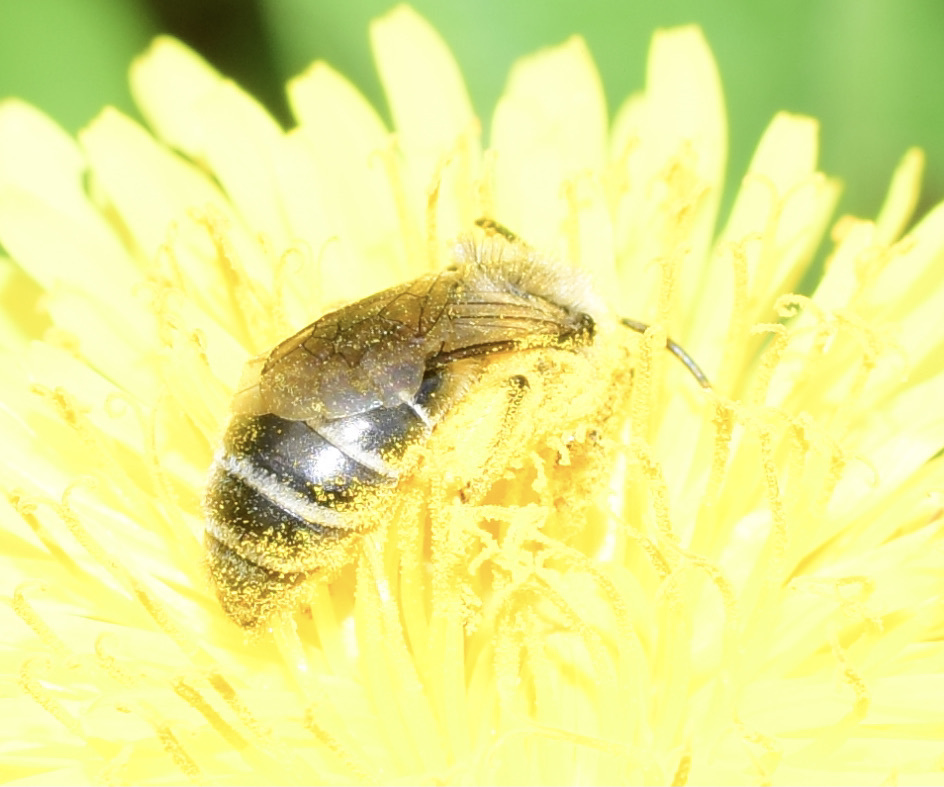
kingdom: Animalia
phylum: Arthropoda
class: Insecta
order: Hymenoptera
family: Colletidae
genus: Colletes
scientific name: Colletes inaequalis
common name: Unequal cellophane bee
